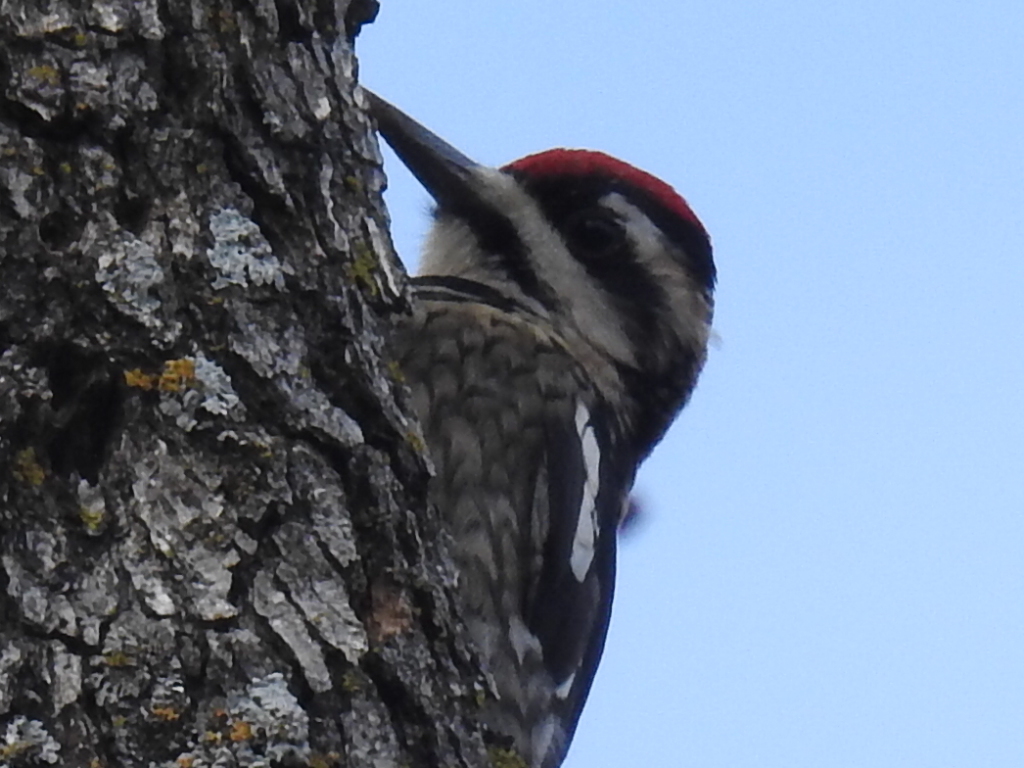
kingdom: Animalia
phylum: Chordata
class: Aves
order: Piciformes
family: Picidae
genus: Sphyrapicus
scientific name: Sphyrapicus varius
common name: Yellow-bellied sapsucker
